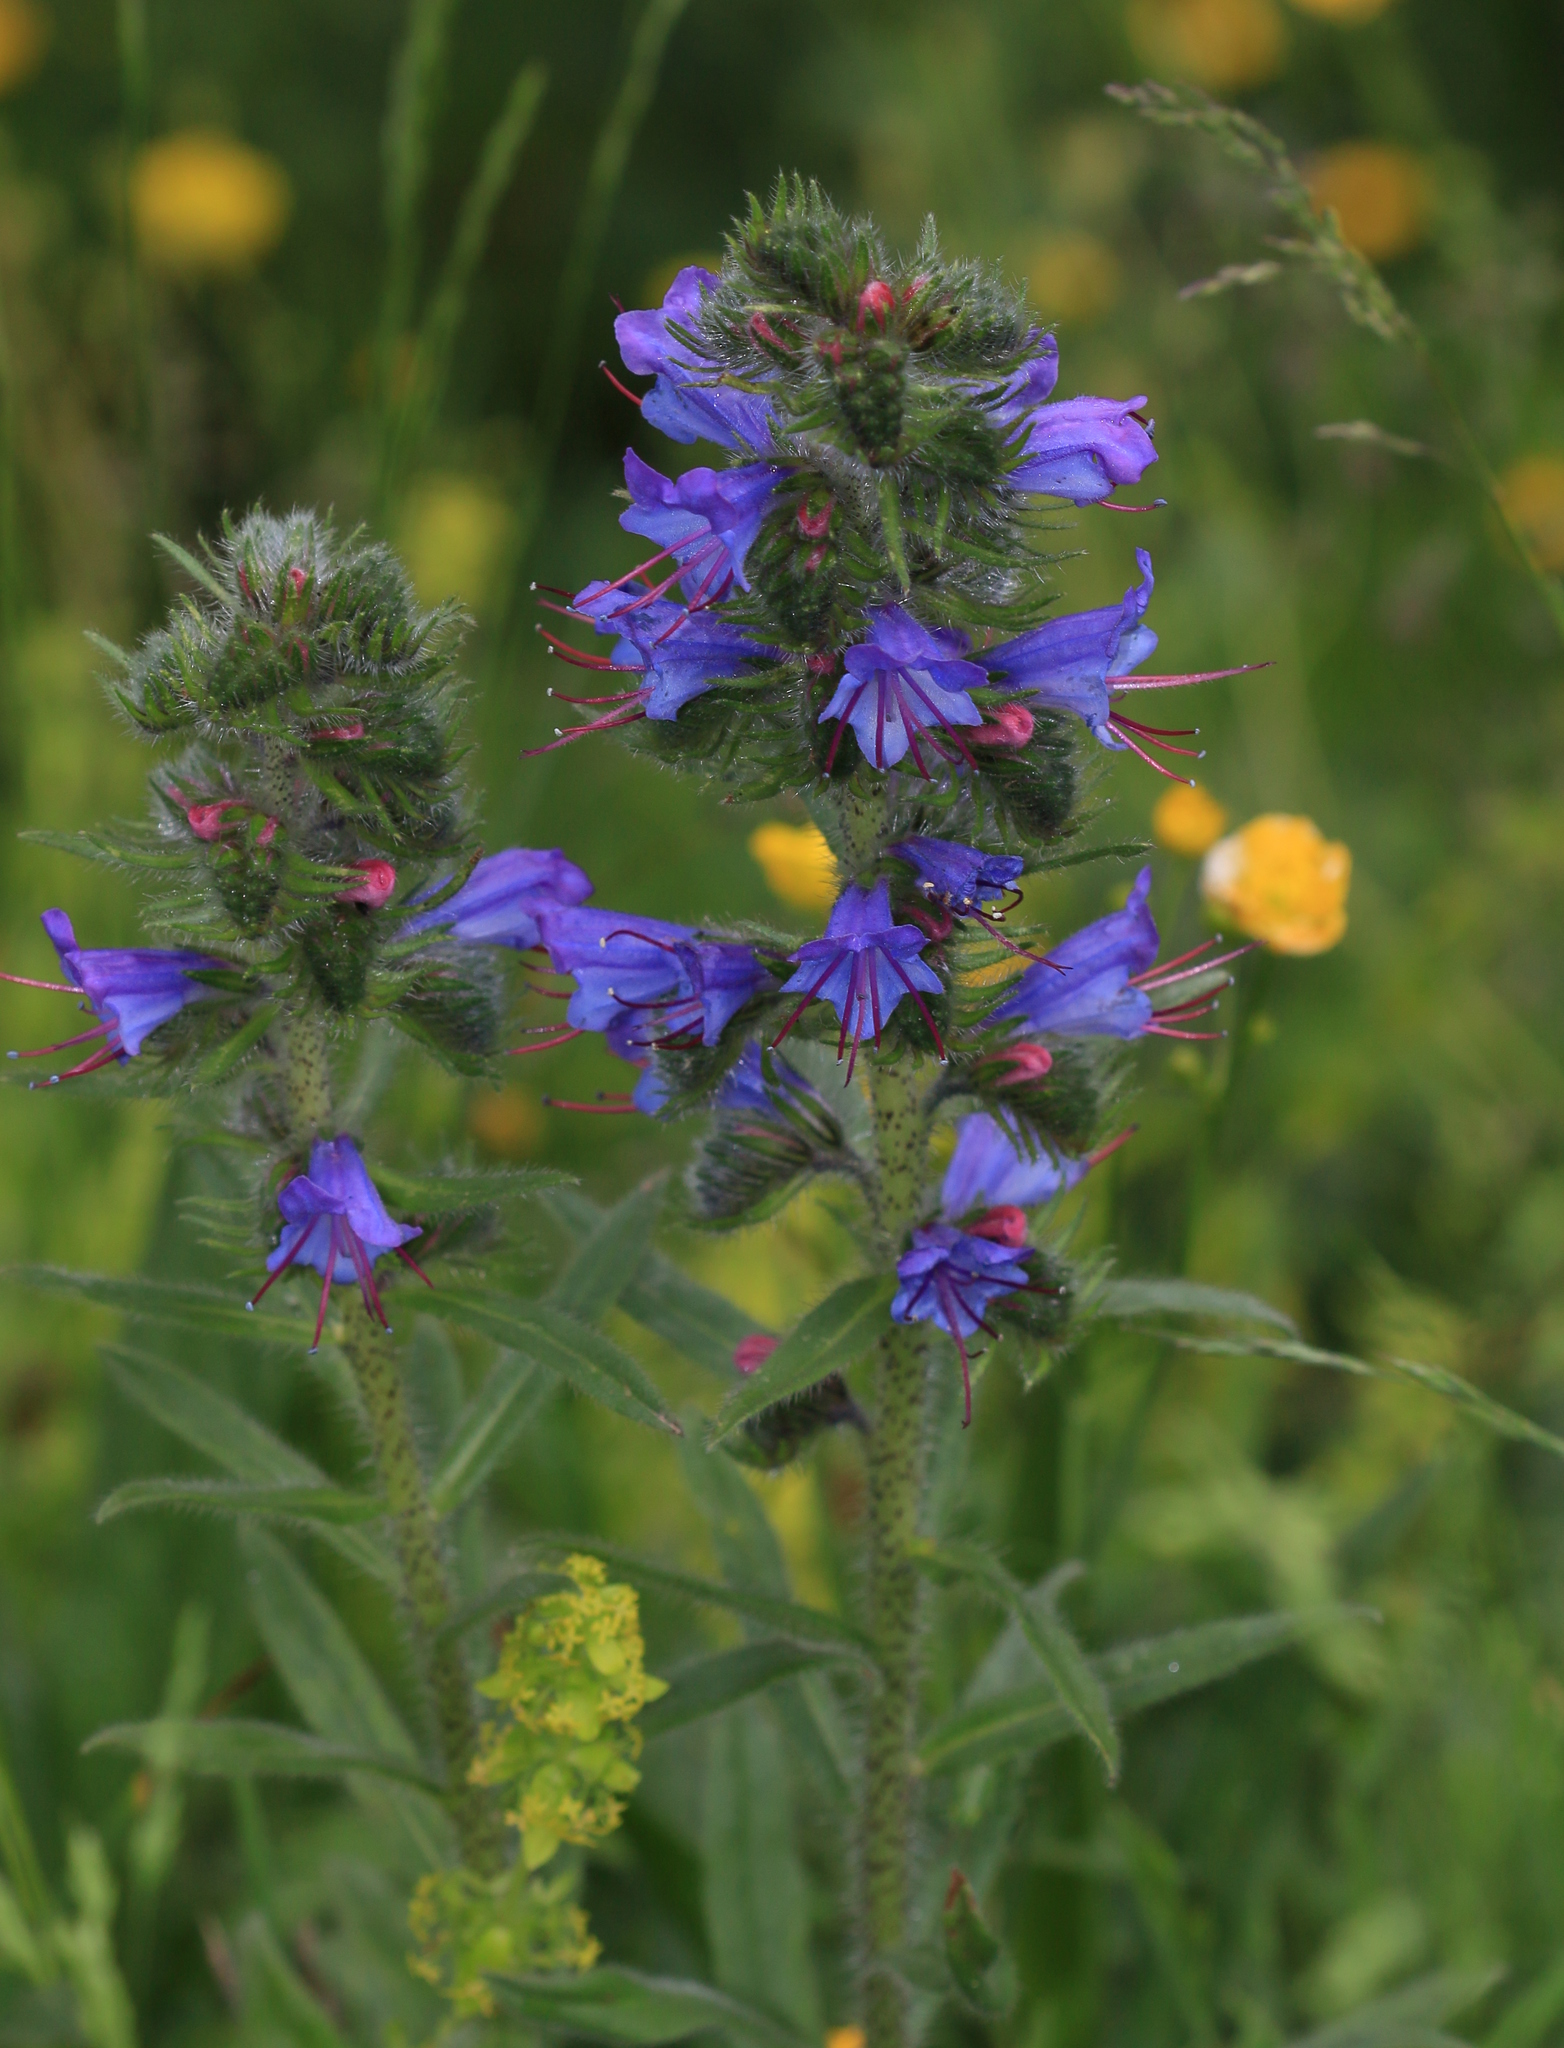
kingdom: Plantae
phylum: Tracheophyta
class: Magnoliopsida
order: Boraginales
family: Boraginaceae
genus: Echium
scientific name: Echium vulgare
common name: Common viper's bugloss
